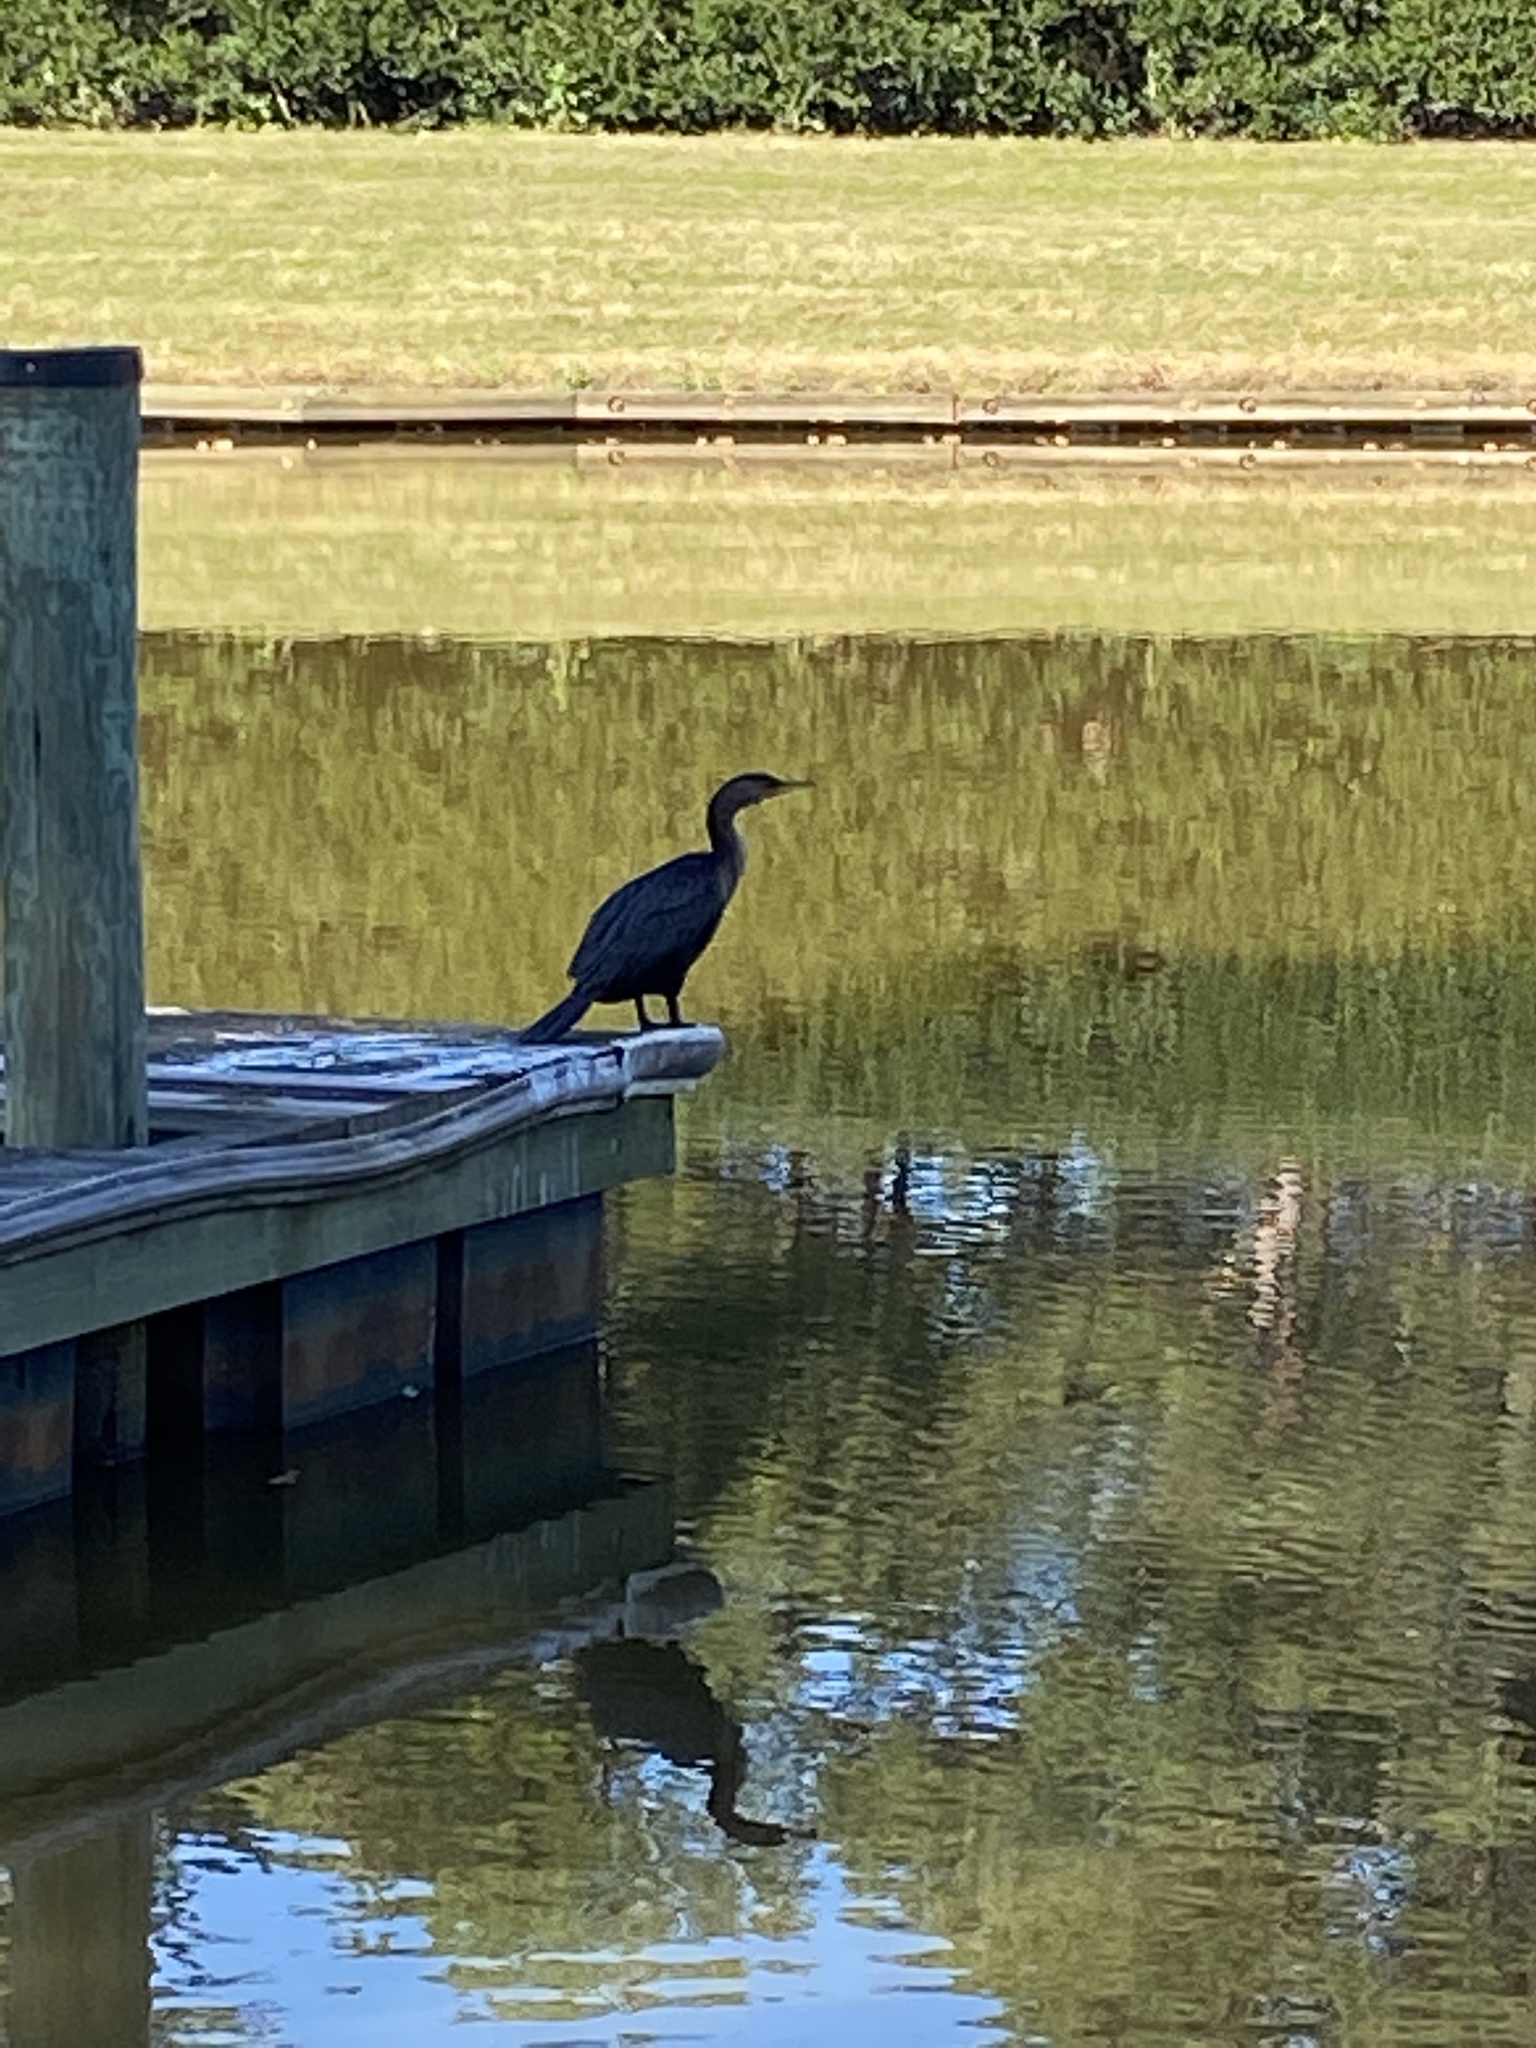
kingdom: Animalia
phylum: Chordata
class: Aves
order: Suliformes
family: Phalacrocoracidae
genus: Phalacrocorax
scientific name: Phalacrocorax auritus
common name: Double-crested cormorant
